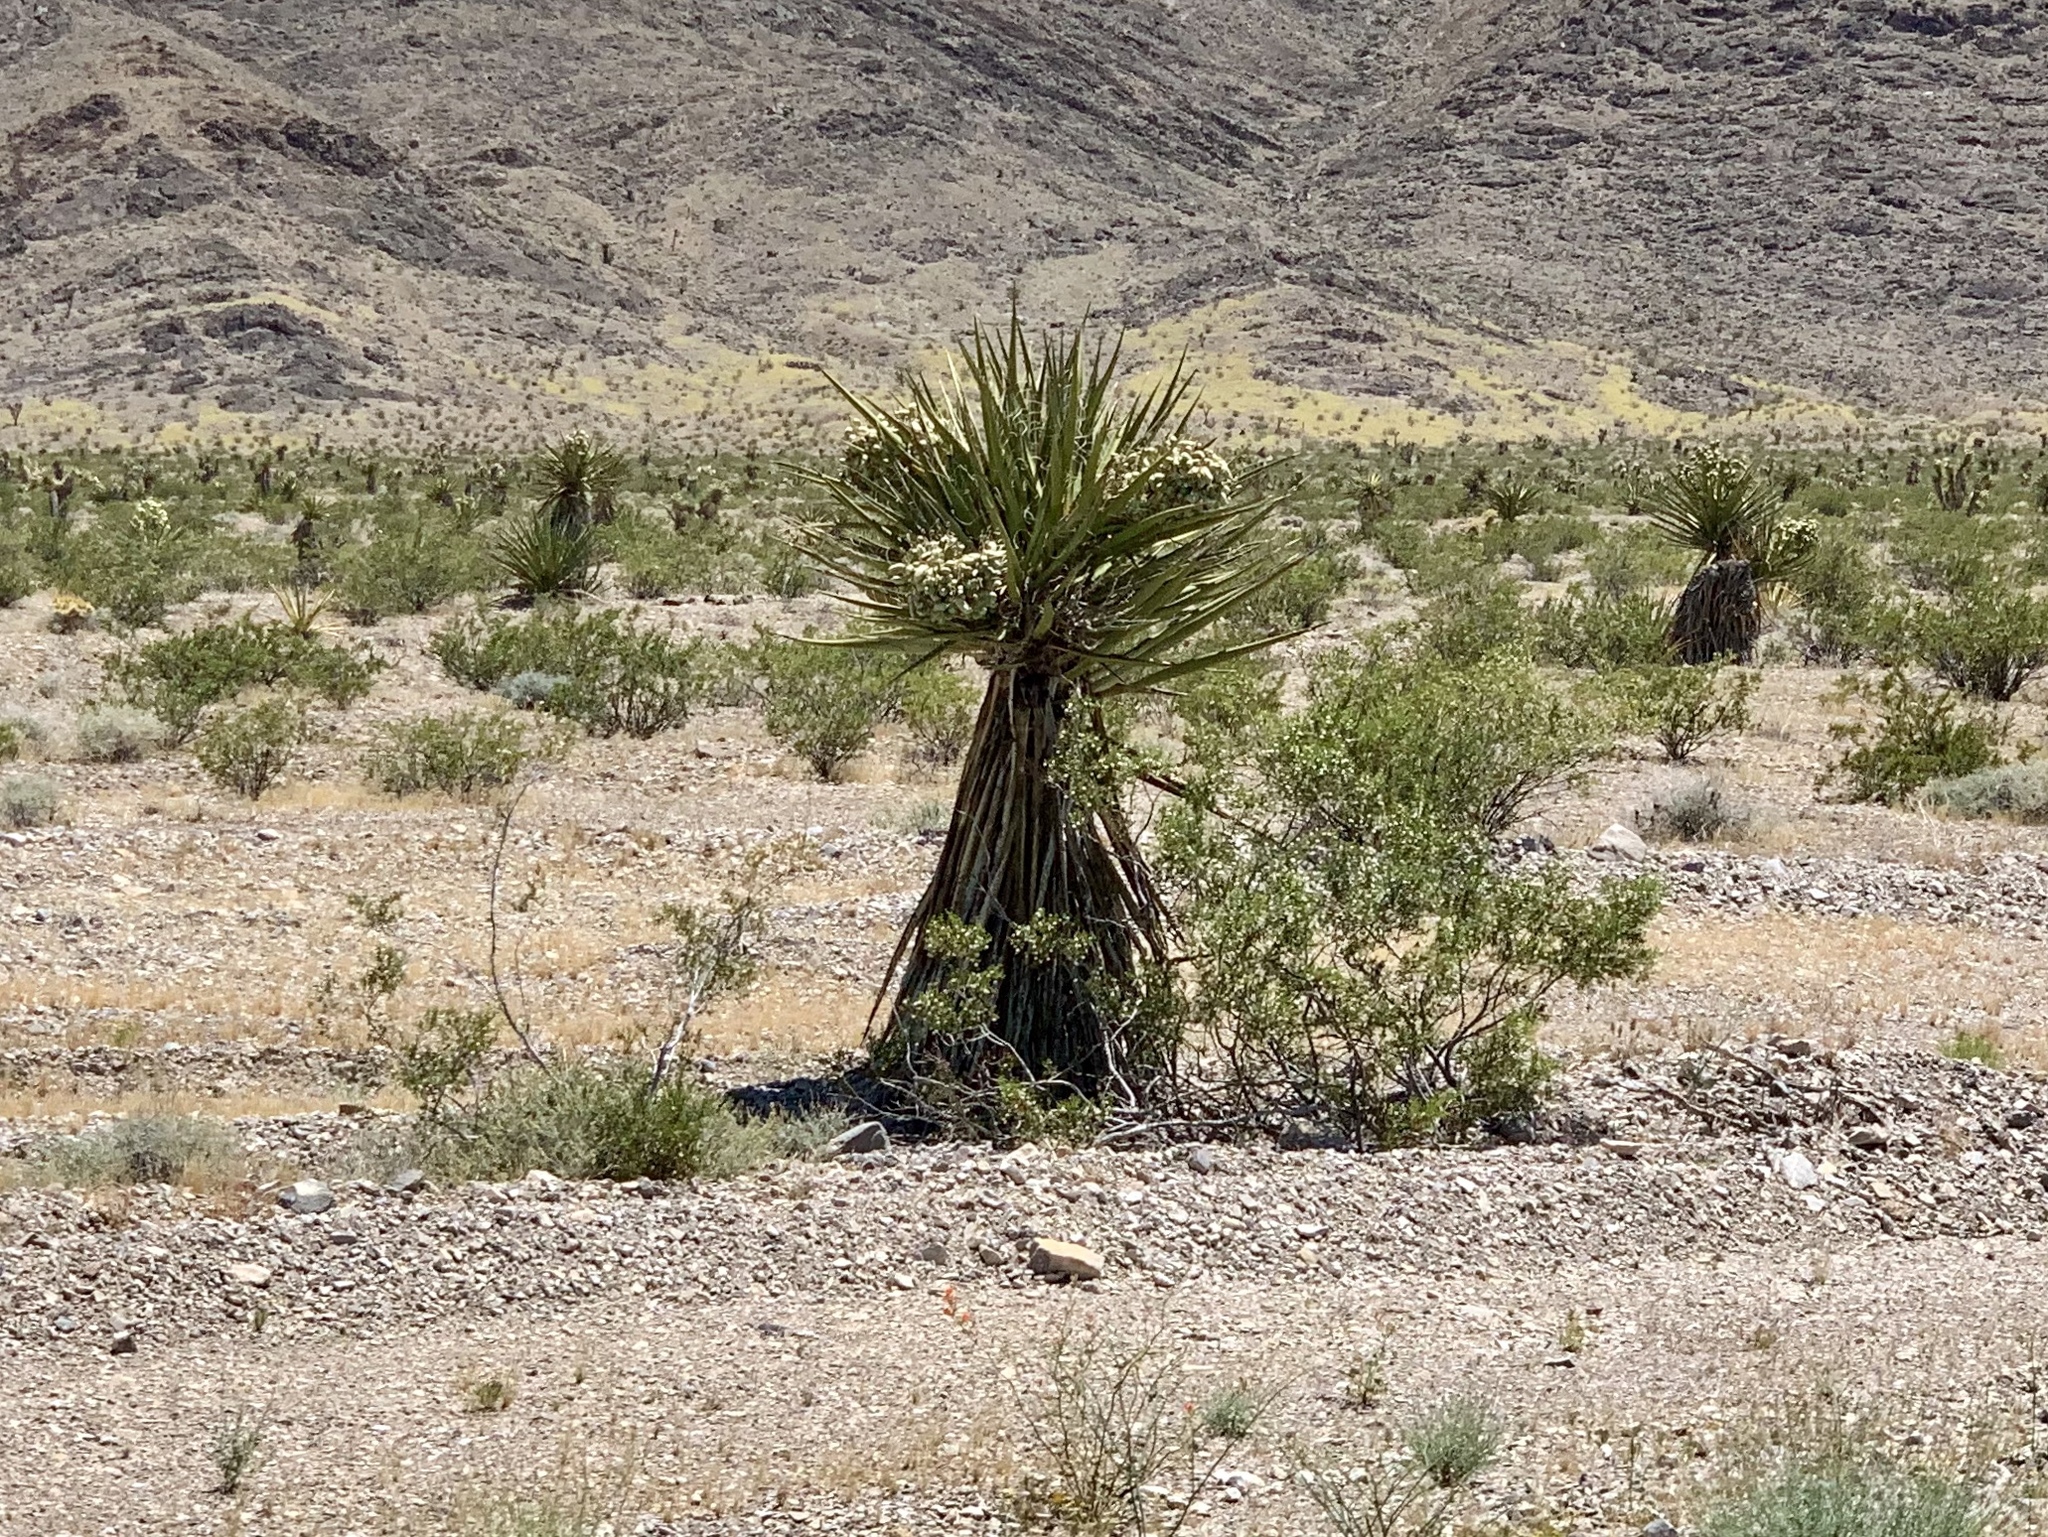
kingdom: Plantae
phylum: Tracheophyta
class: Liliopsida
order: Asparagales
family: Asparagaceae
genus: Yucca
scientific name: Yucca schidigera
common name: Mojave yucca
